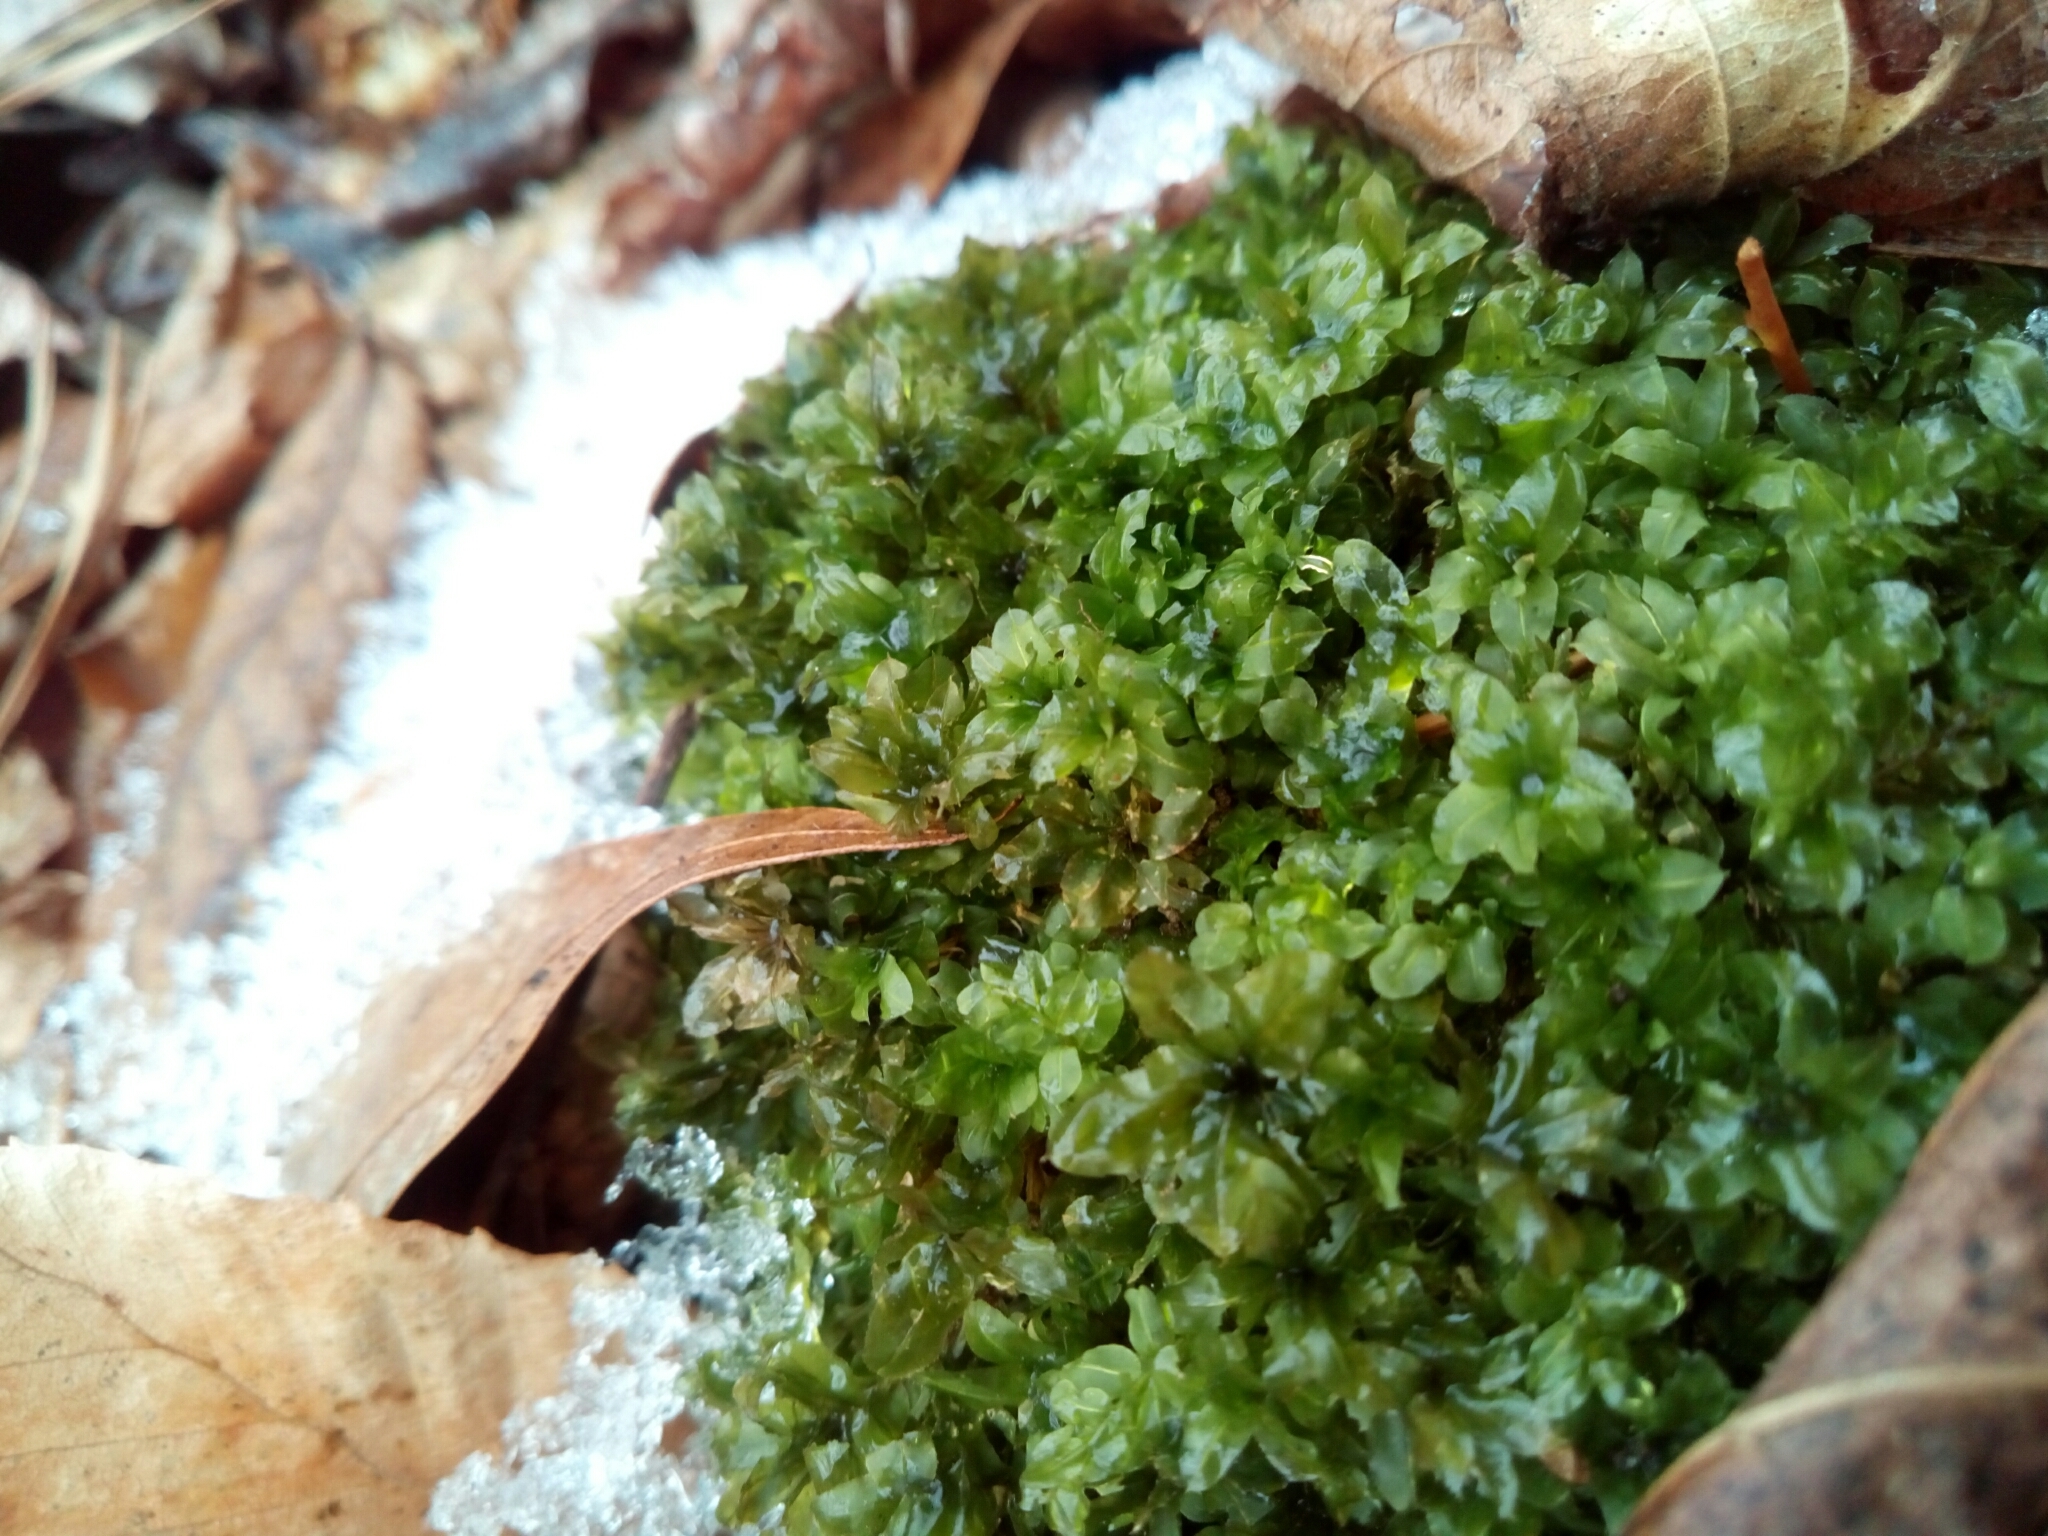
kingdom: Plantae
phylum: Bryophyta
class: Bryopsida
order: Bryales
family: Bryaceae
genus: Rhodobryum
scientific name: Rhodobryum ontariense
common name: Ontario rhodobryum moss
